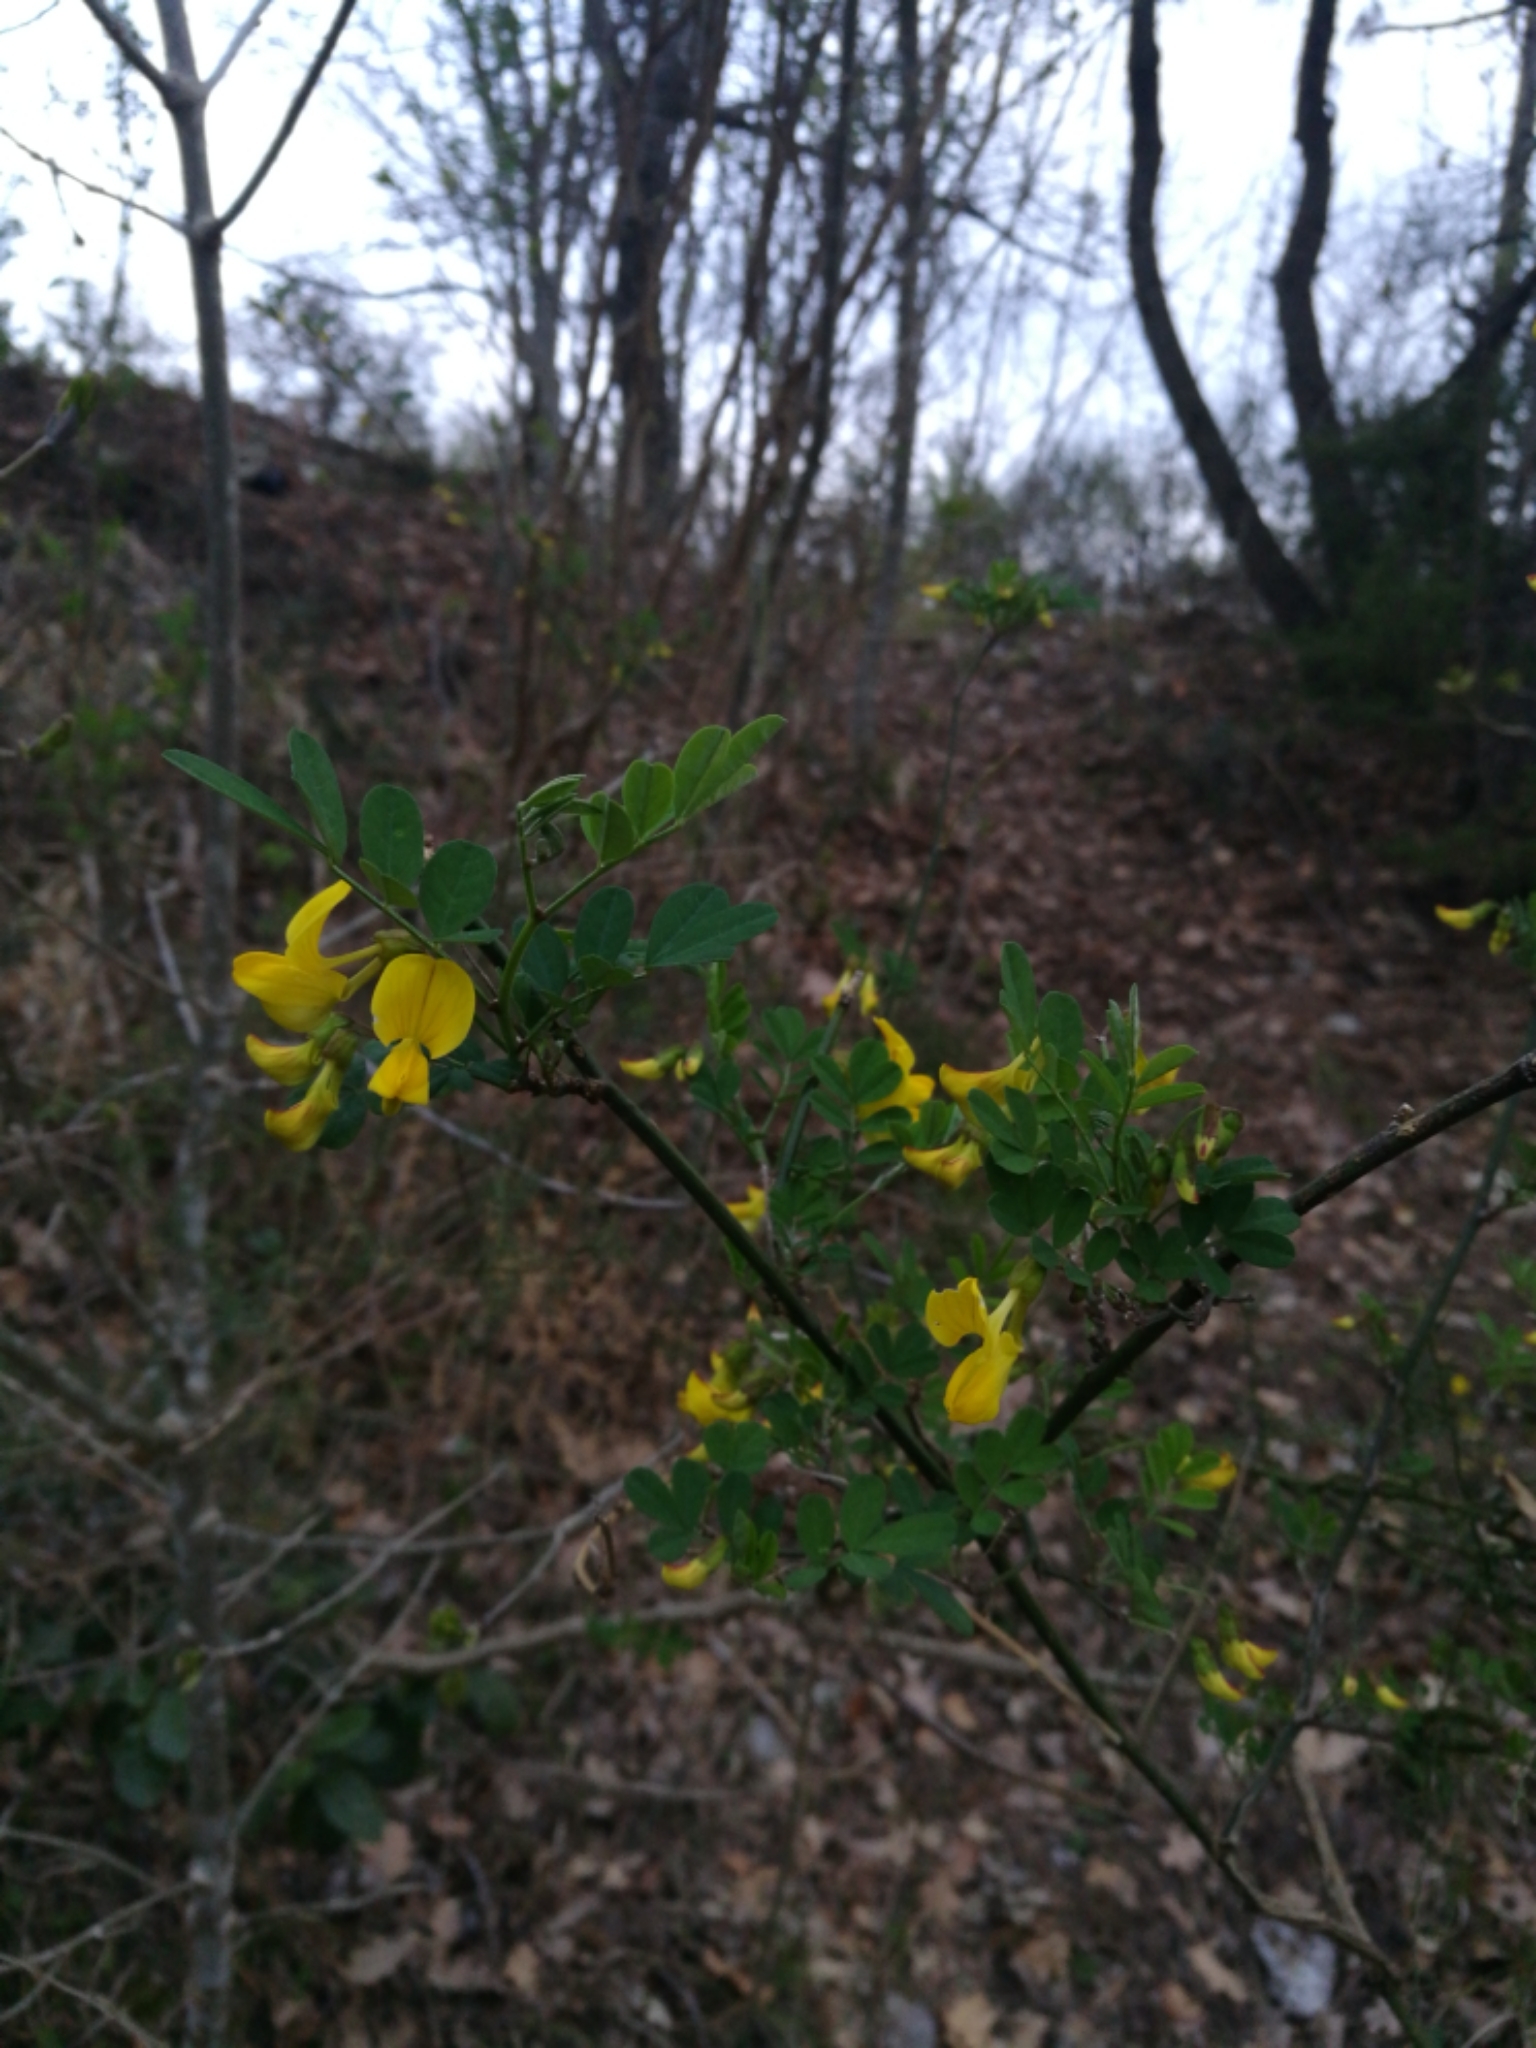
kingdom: Plantae
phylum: Tracheophyta
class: Magnoliopsida
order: Fabales
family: Fabaceae
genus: Hippocrepis
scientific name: Hippocrepis emerus
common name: Scorpion senna
